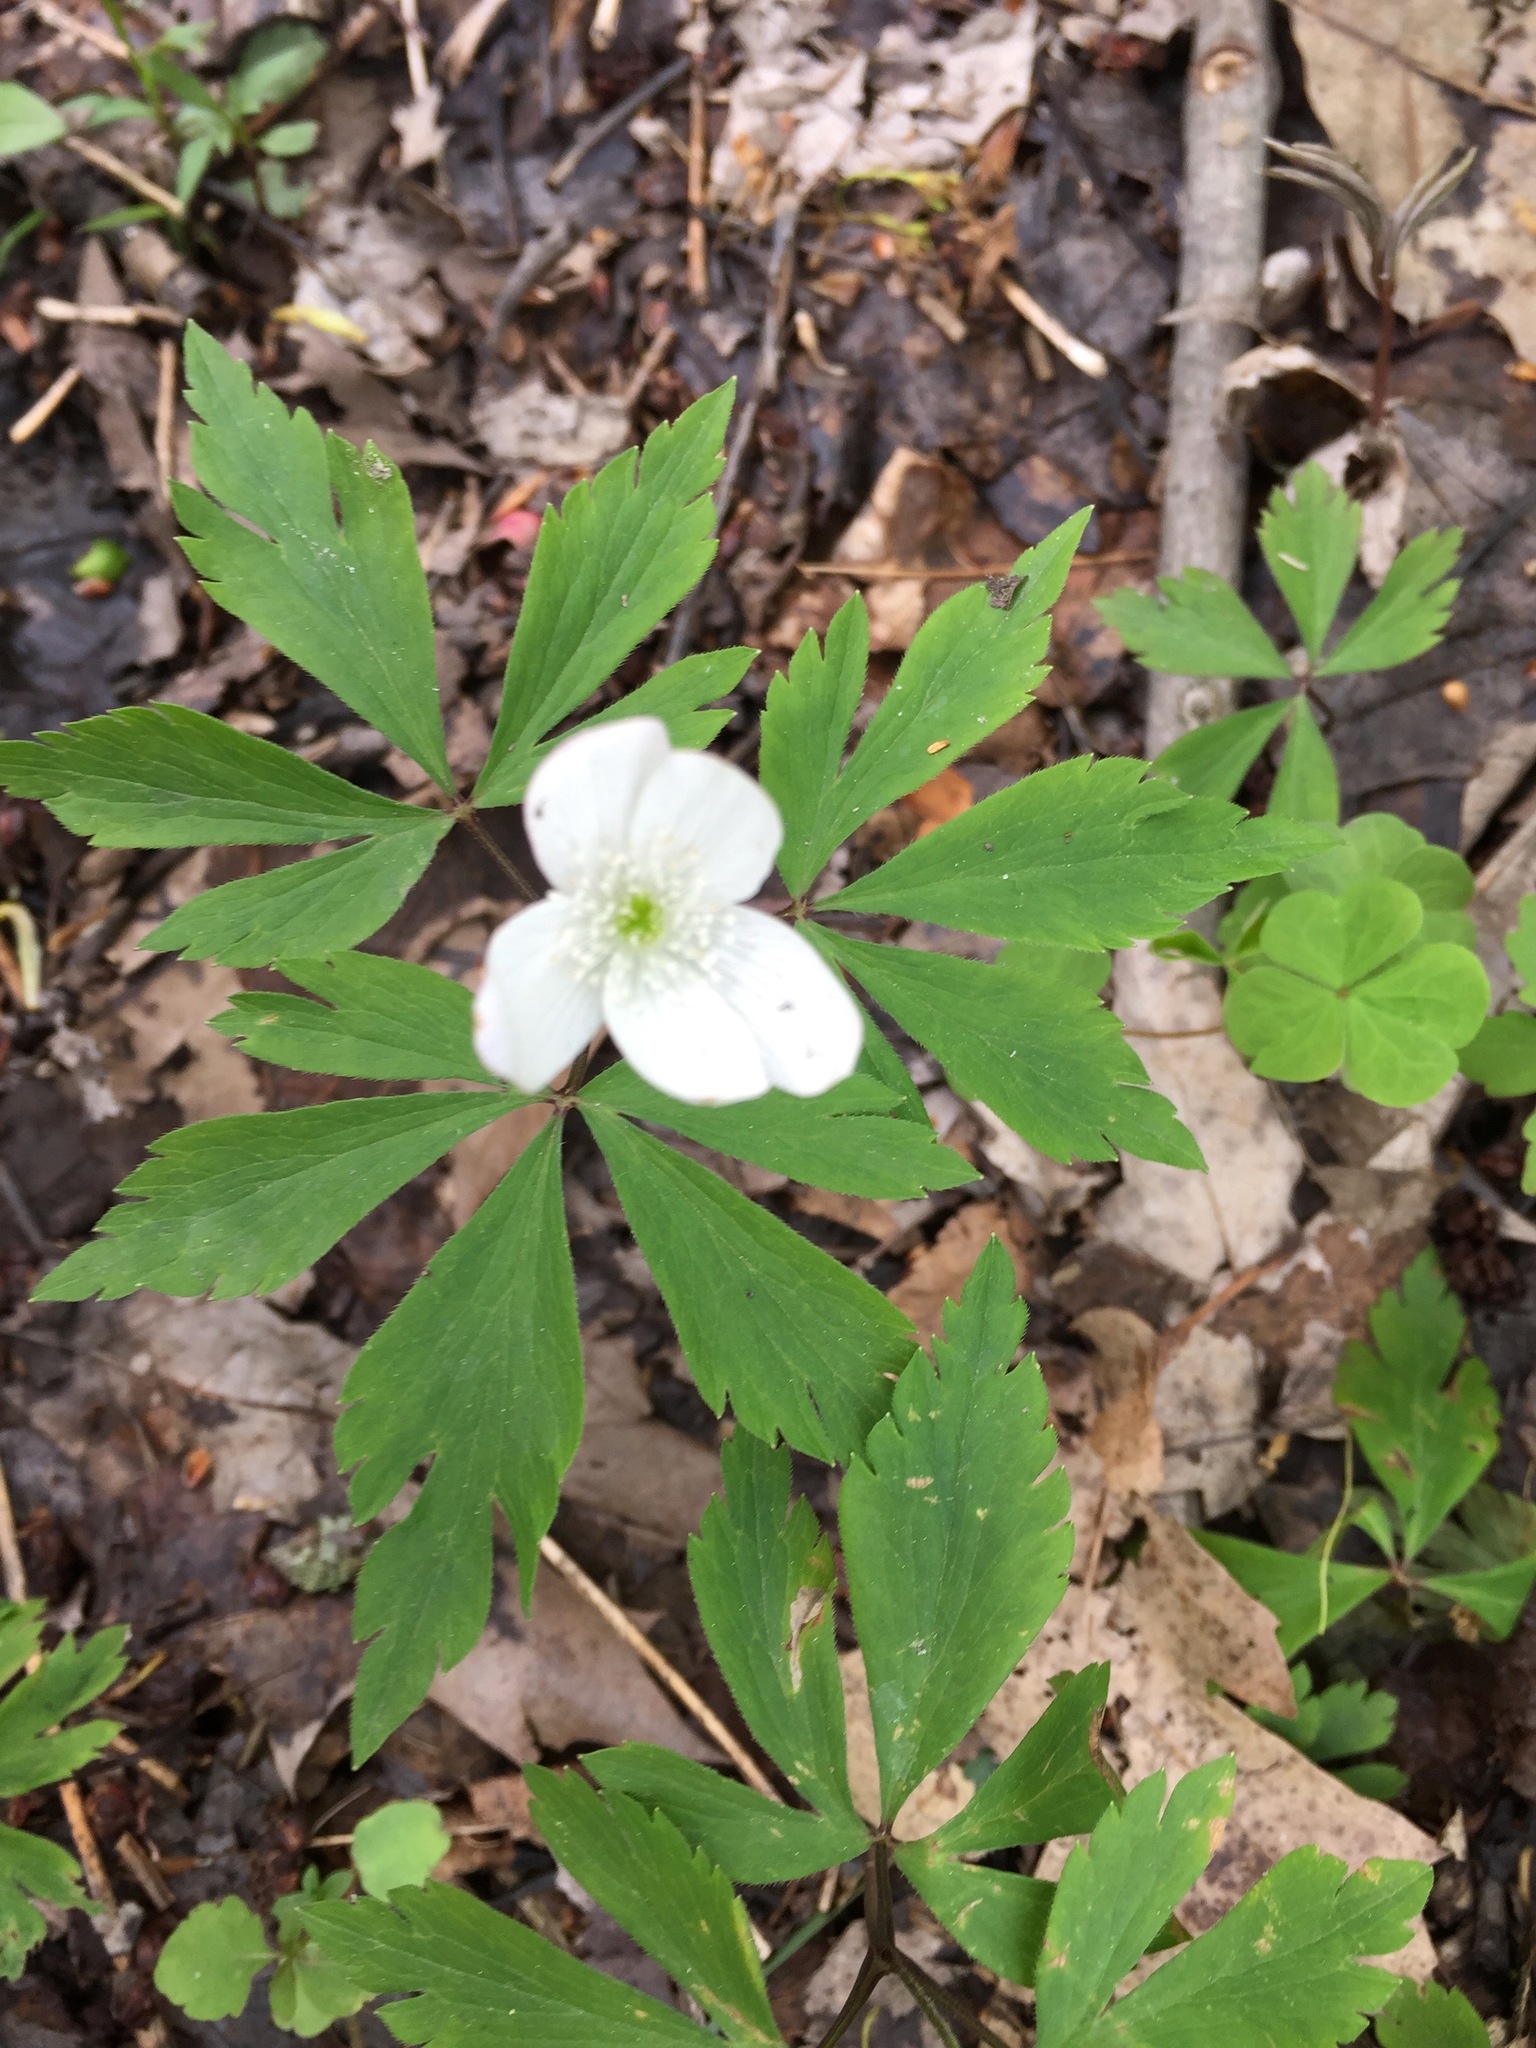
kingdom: Plantae
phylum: Tracheophyta
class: Magnoliopsida
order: Ranunculales
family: Ranunculaceae
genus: Anemone
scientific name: Anemone quinquefolia
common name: Wood anemone
